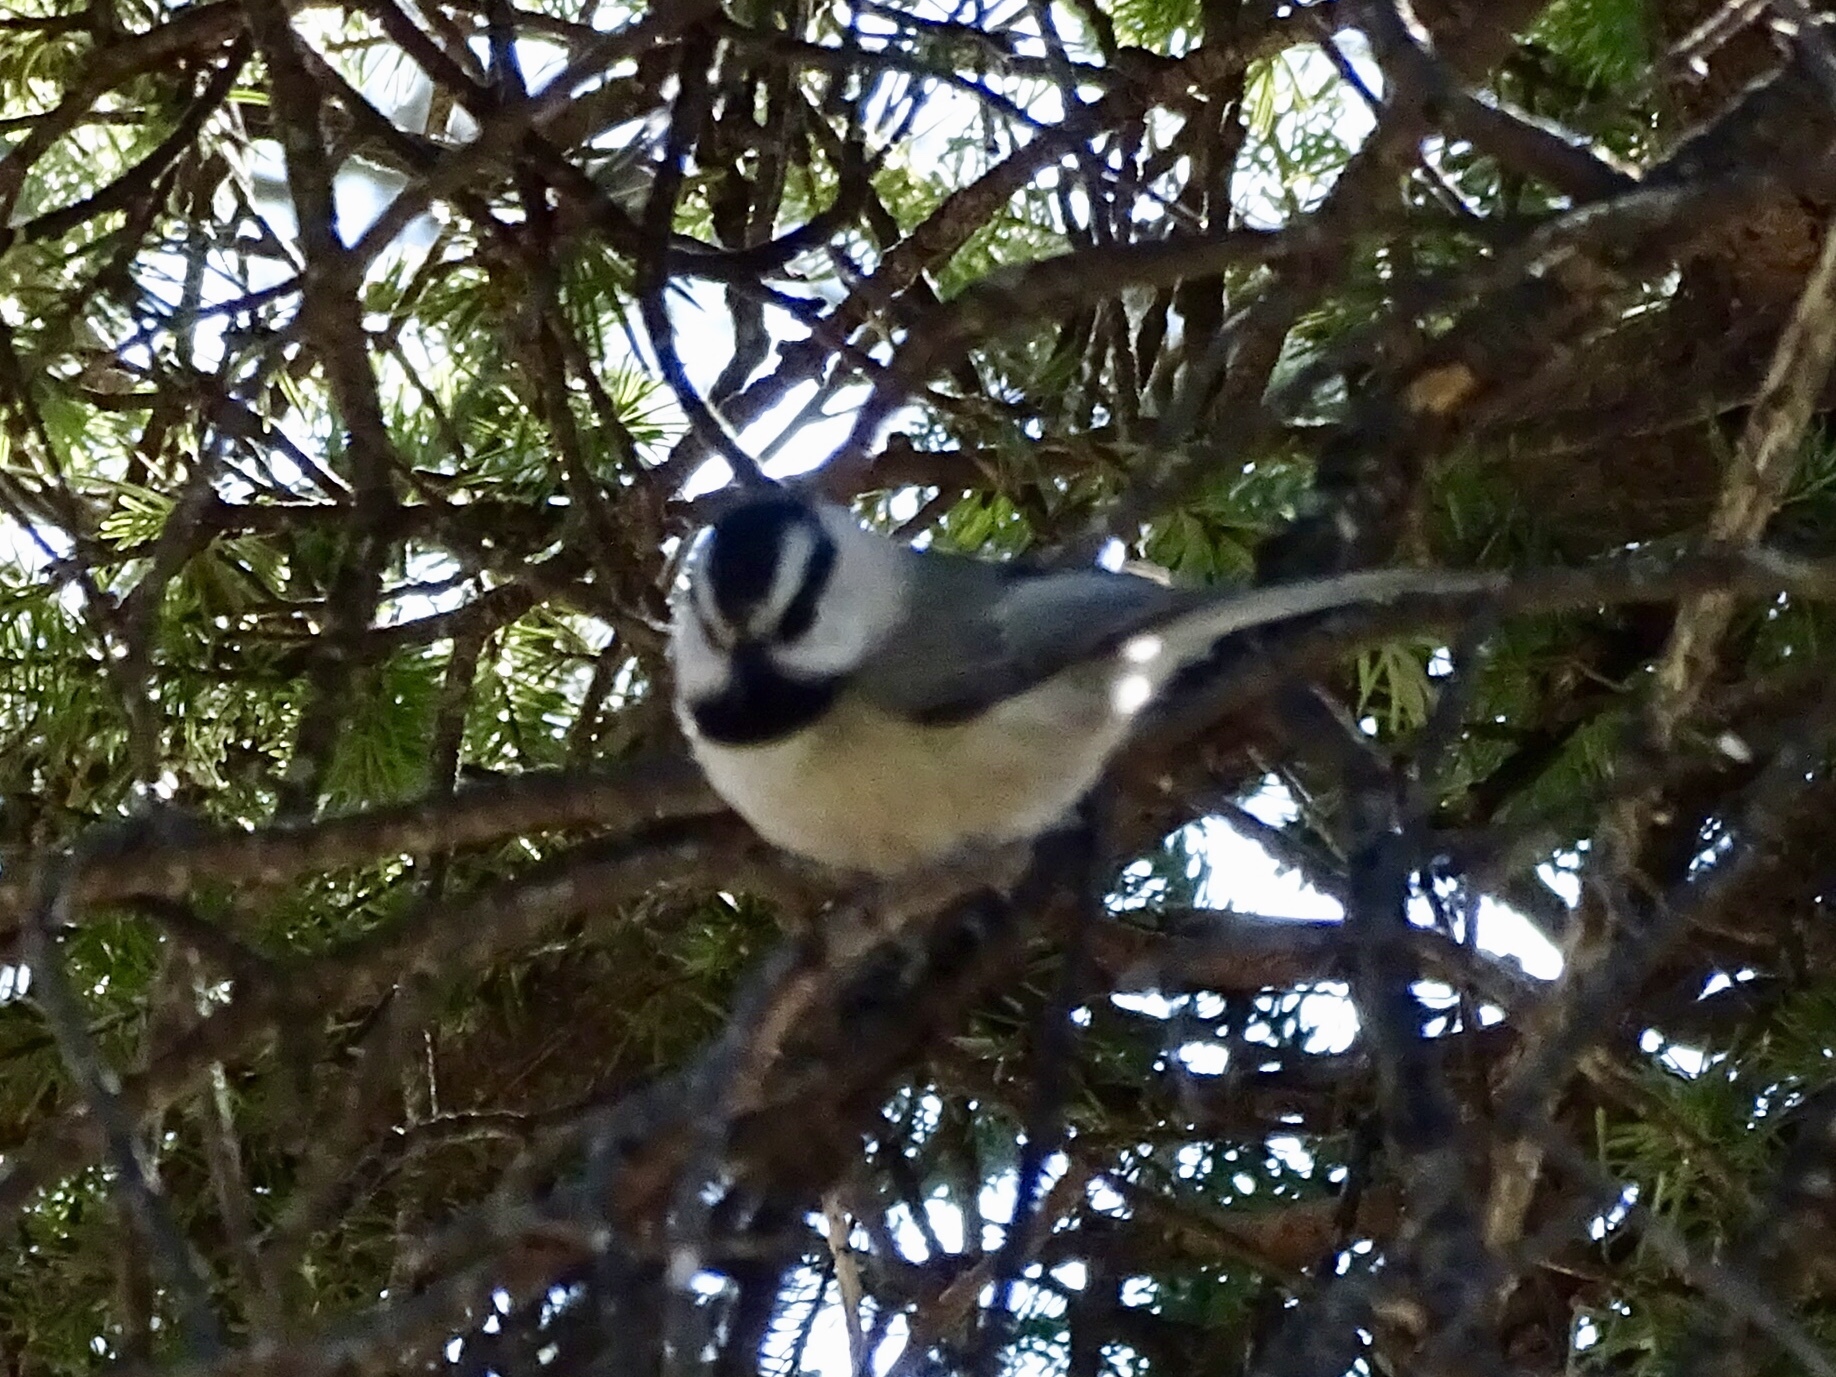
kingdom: Animalia
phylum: Chordata
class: Aves
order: Passeriformes
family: Paridae
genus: Poecile
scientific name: Poecile gambeli
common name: Mountain chickadee
